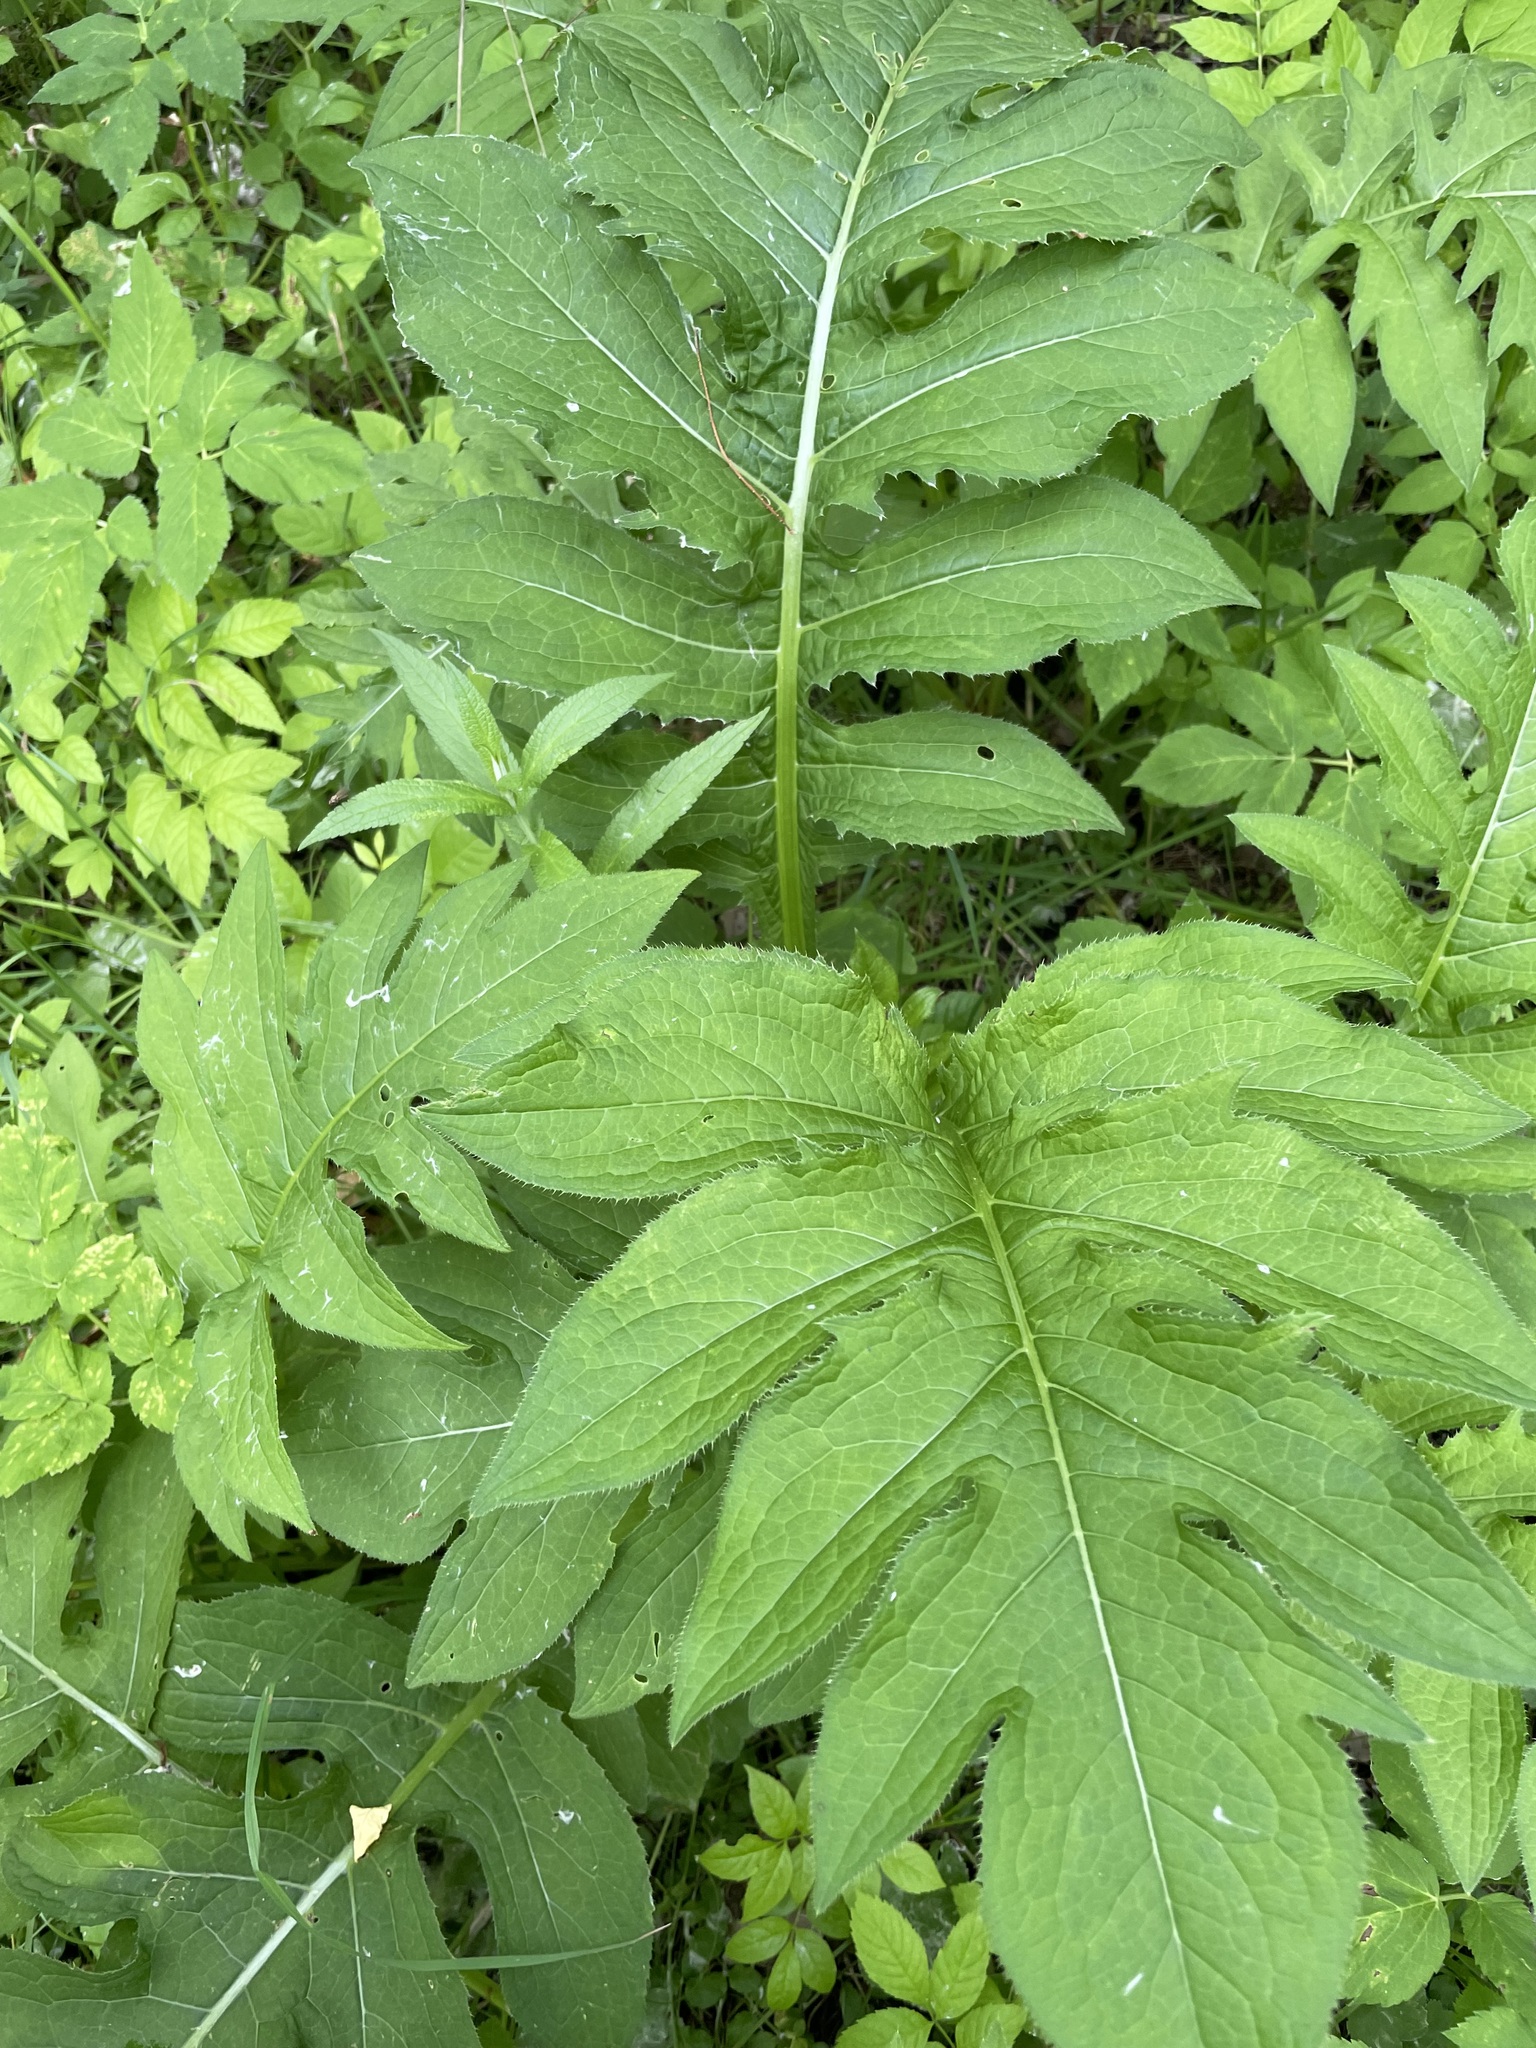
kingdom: Plantae
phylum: Tracheophyta
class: Magnoliopsida
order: Asterales
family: Asteraceae
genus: Cirsium
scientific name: Cirsium oleraceum
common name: Cabbage thistle
